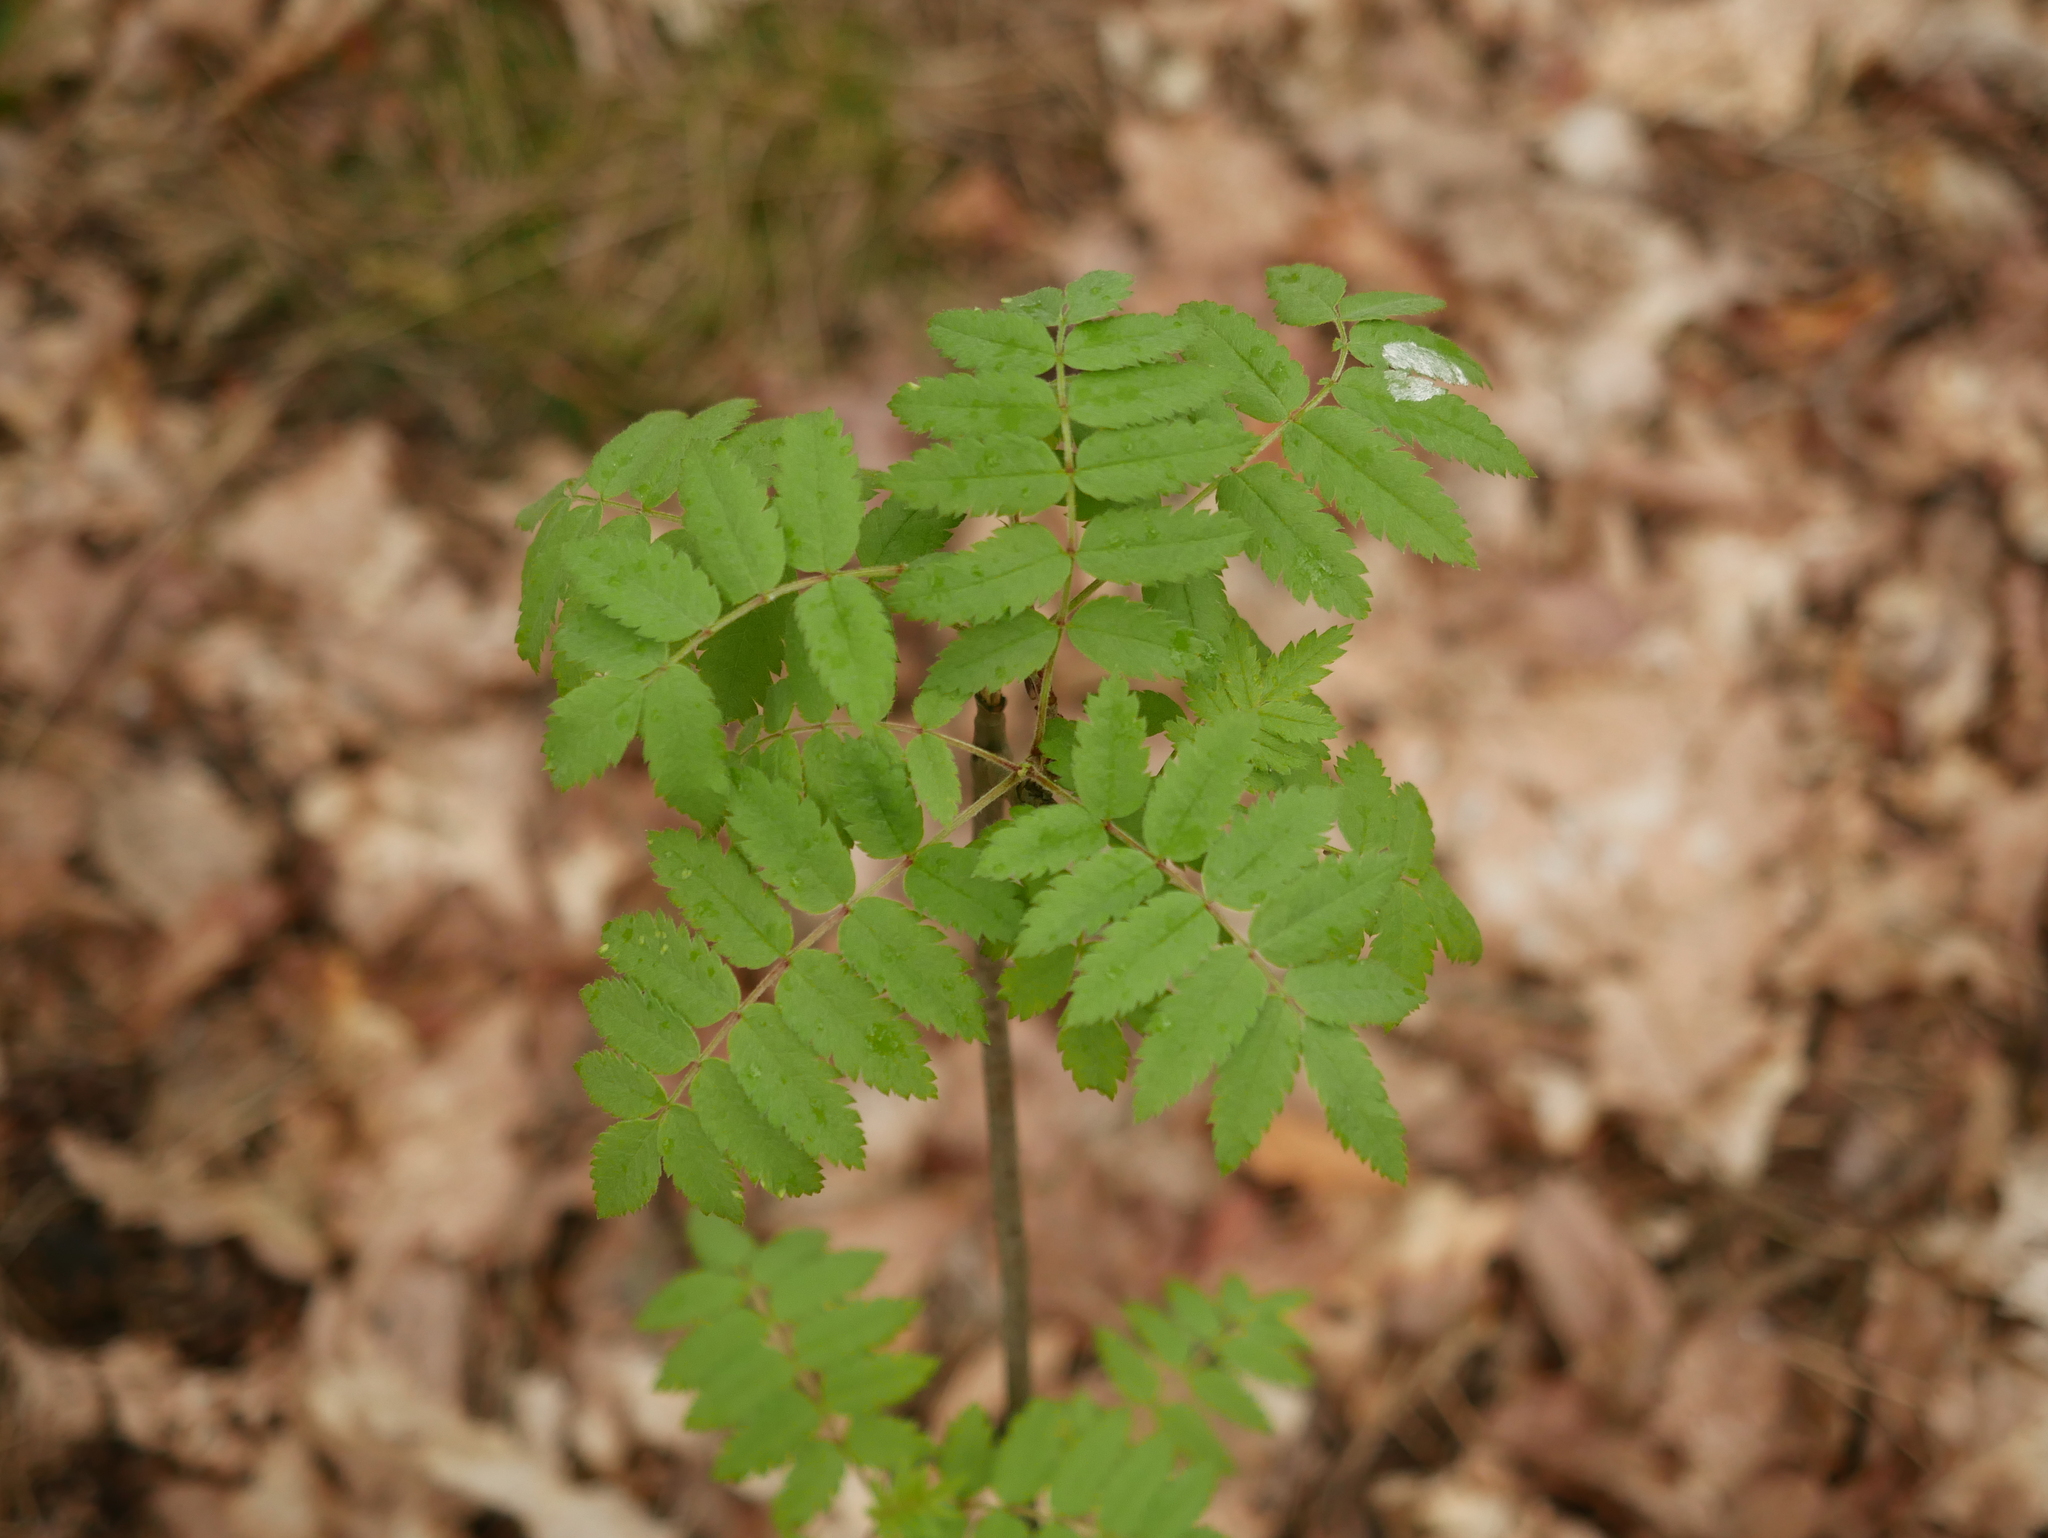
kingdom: Plantae
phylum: Tracheophyta
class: Magnoliopsida
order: Rosales
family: Rosaceae
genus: Sorbus
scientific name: Sorbus aucuparia
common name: Rowan
